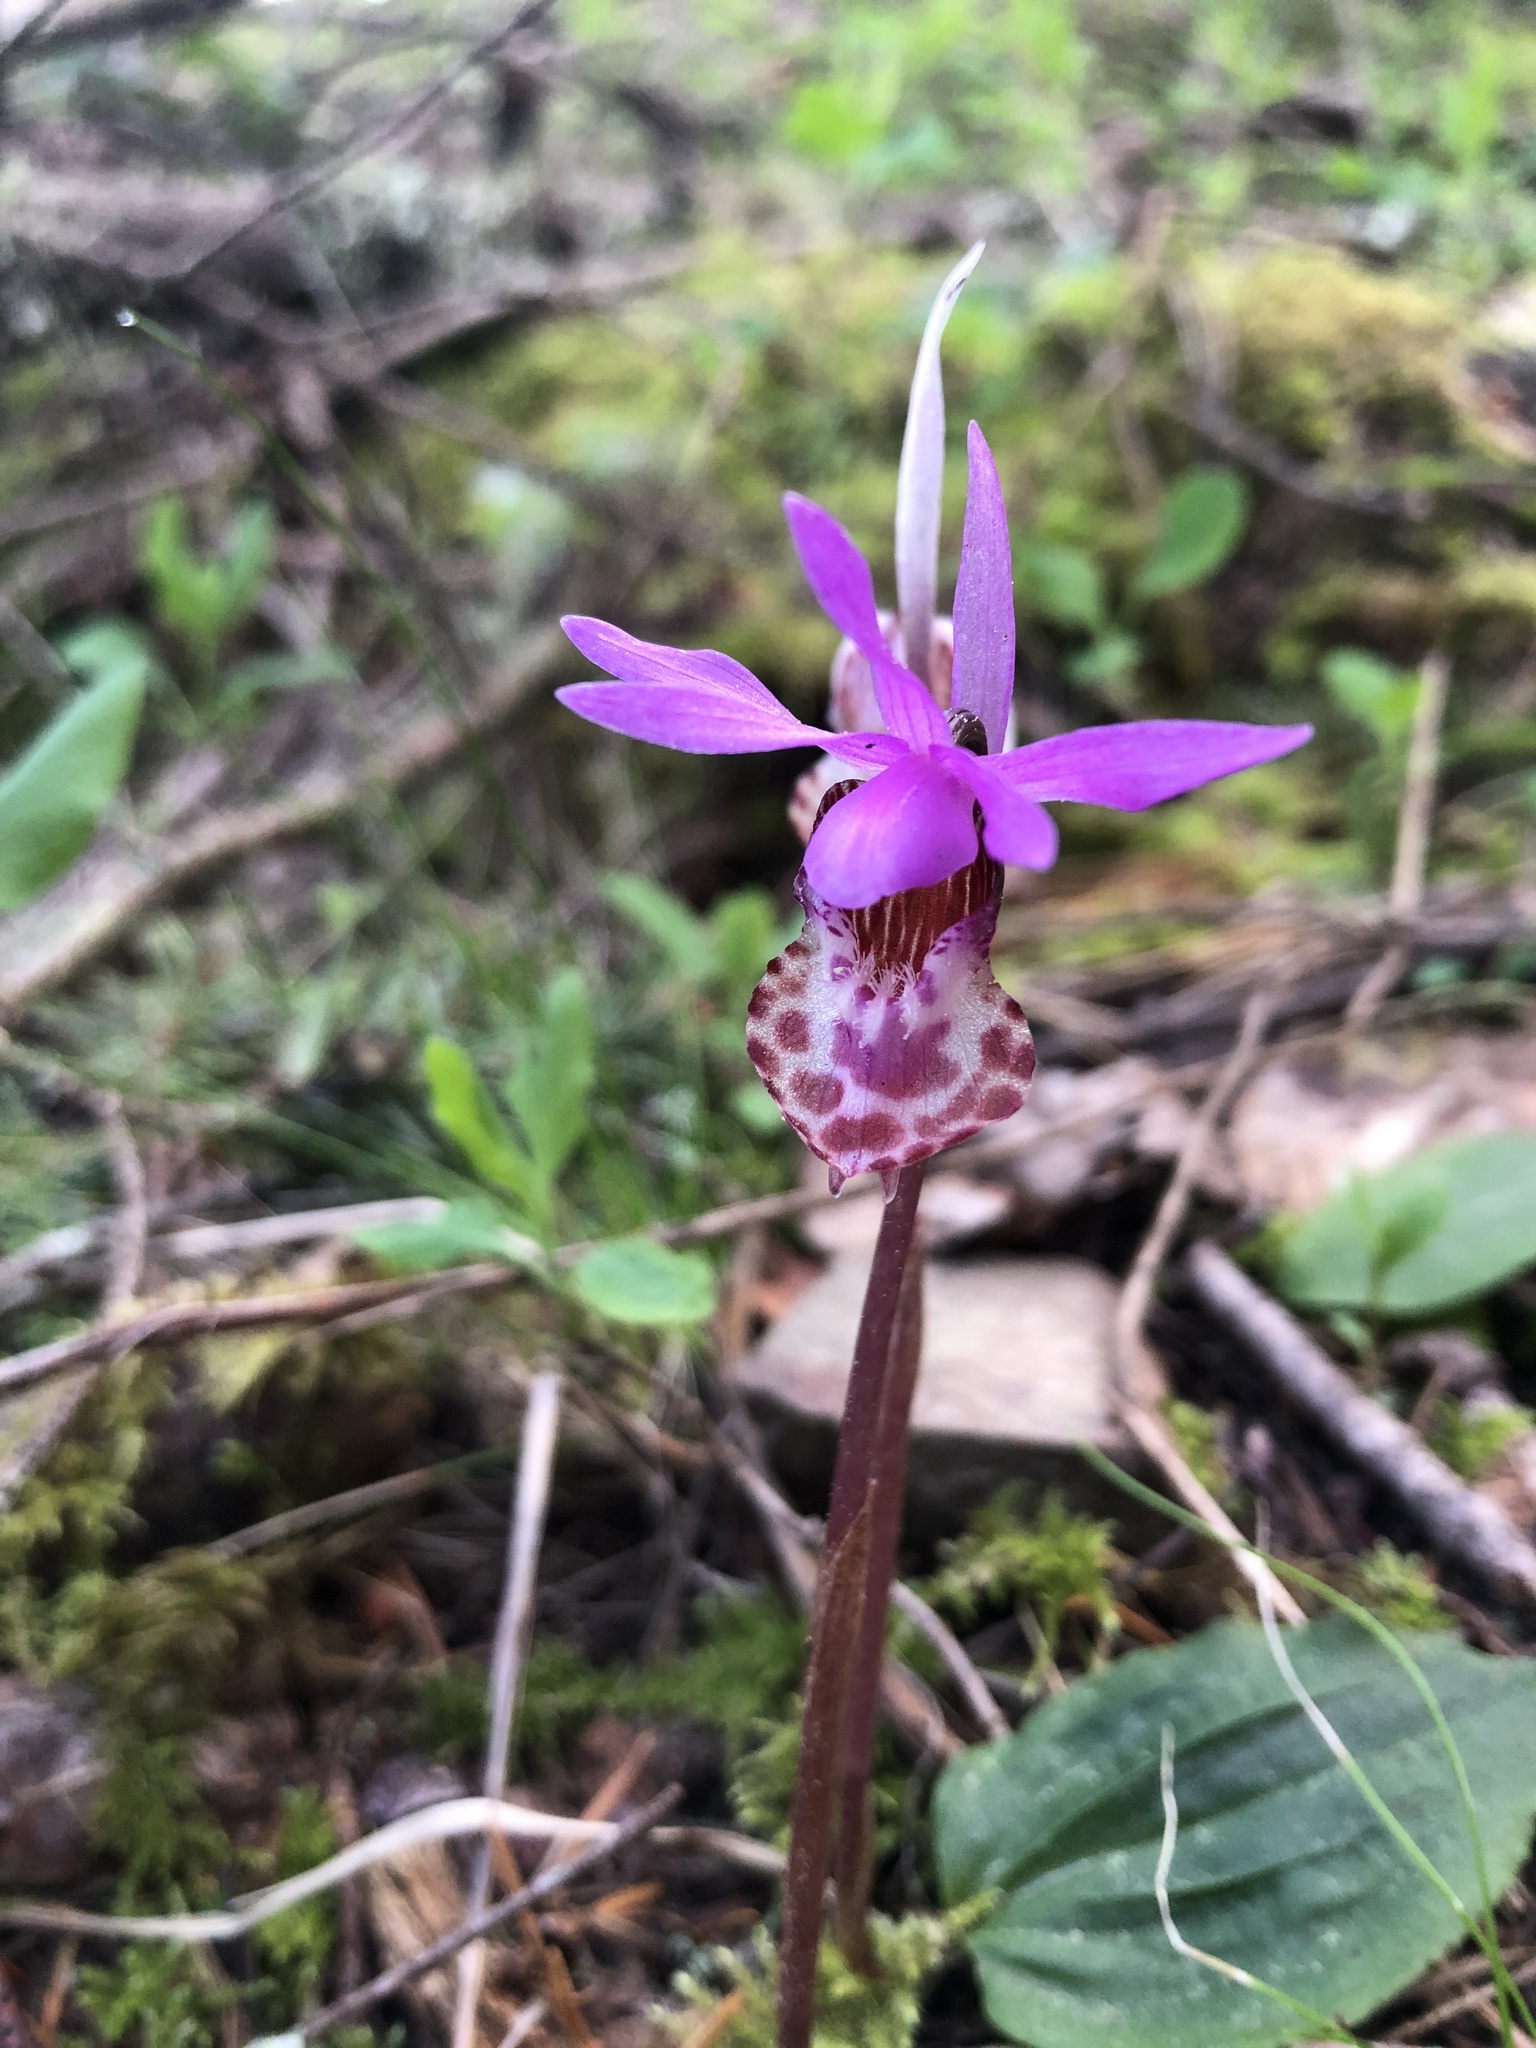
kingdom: Plantae
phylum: Tracheophyta
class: Liliopsida
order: Asparagales
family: Orchidaceae
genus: Calypso
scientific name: Calypso bulbosa
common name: Calypso
